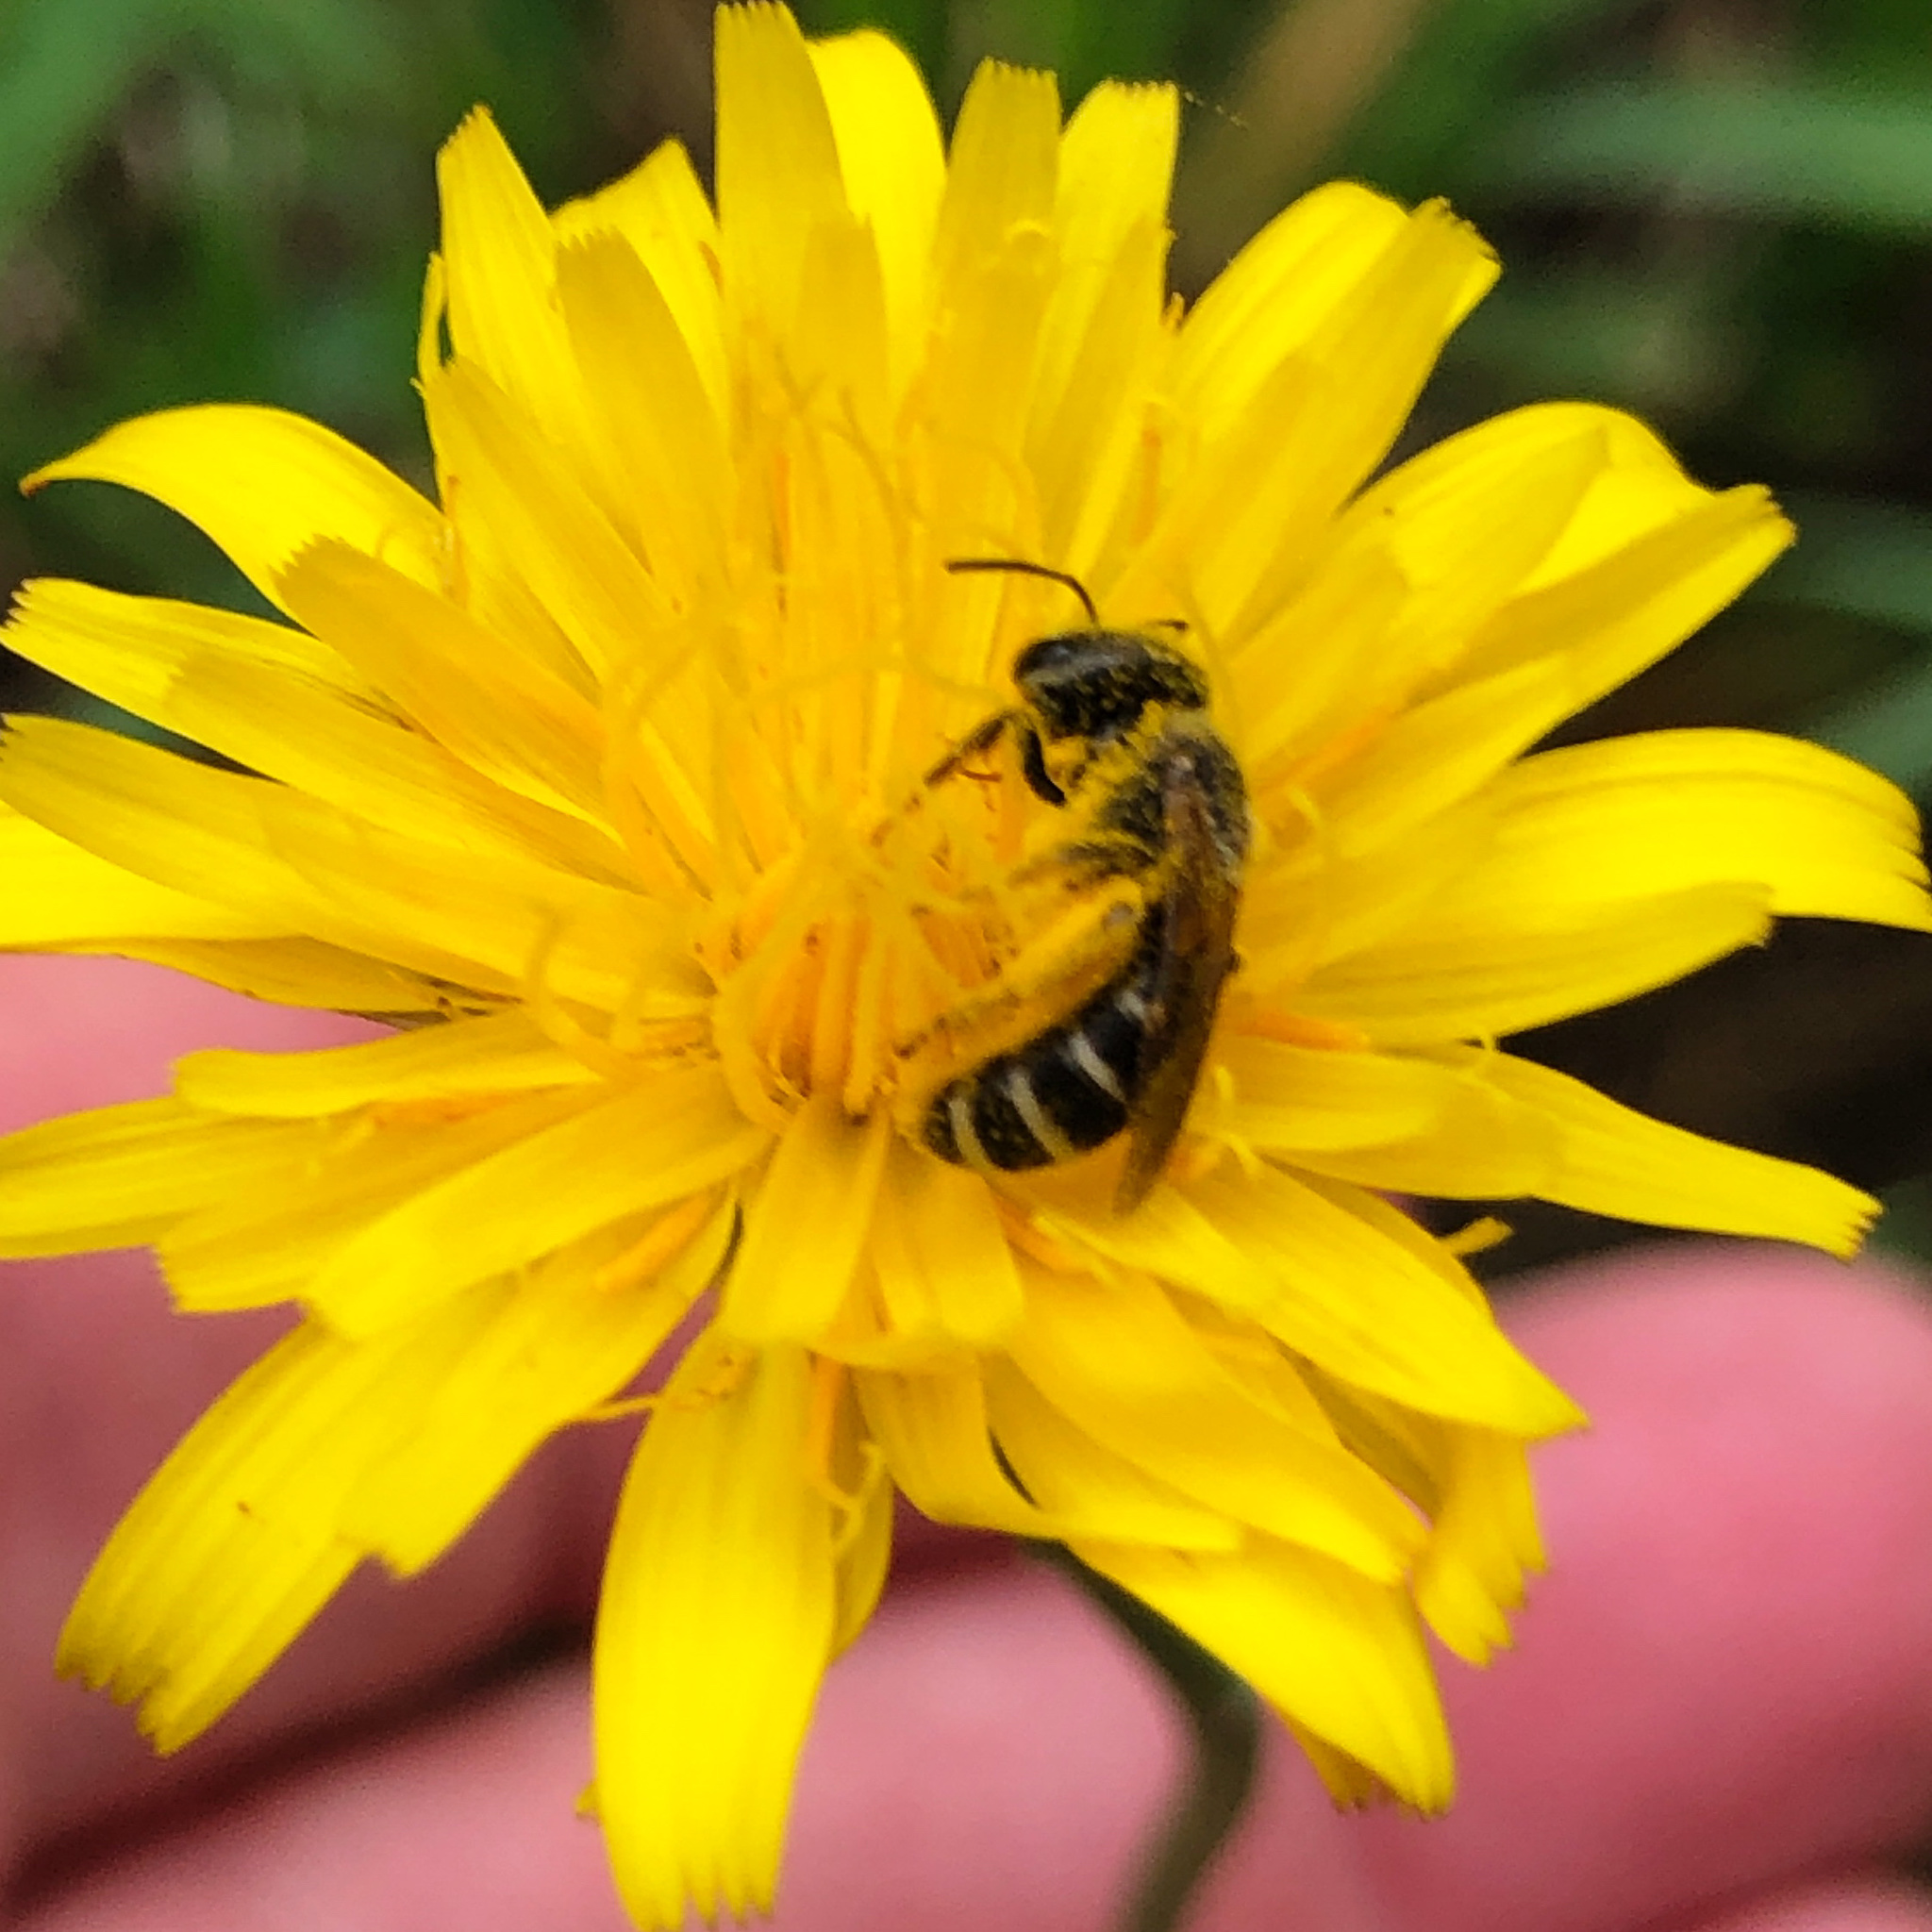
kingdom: Animalia
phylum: Arthropoda
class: Insecta
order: Hymenoptera
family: Halictidae
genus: Halictus
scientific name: Halictus ligatus
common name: Ligated furrow bee
